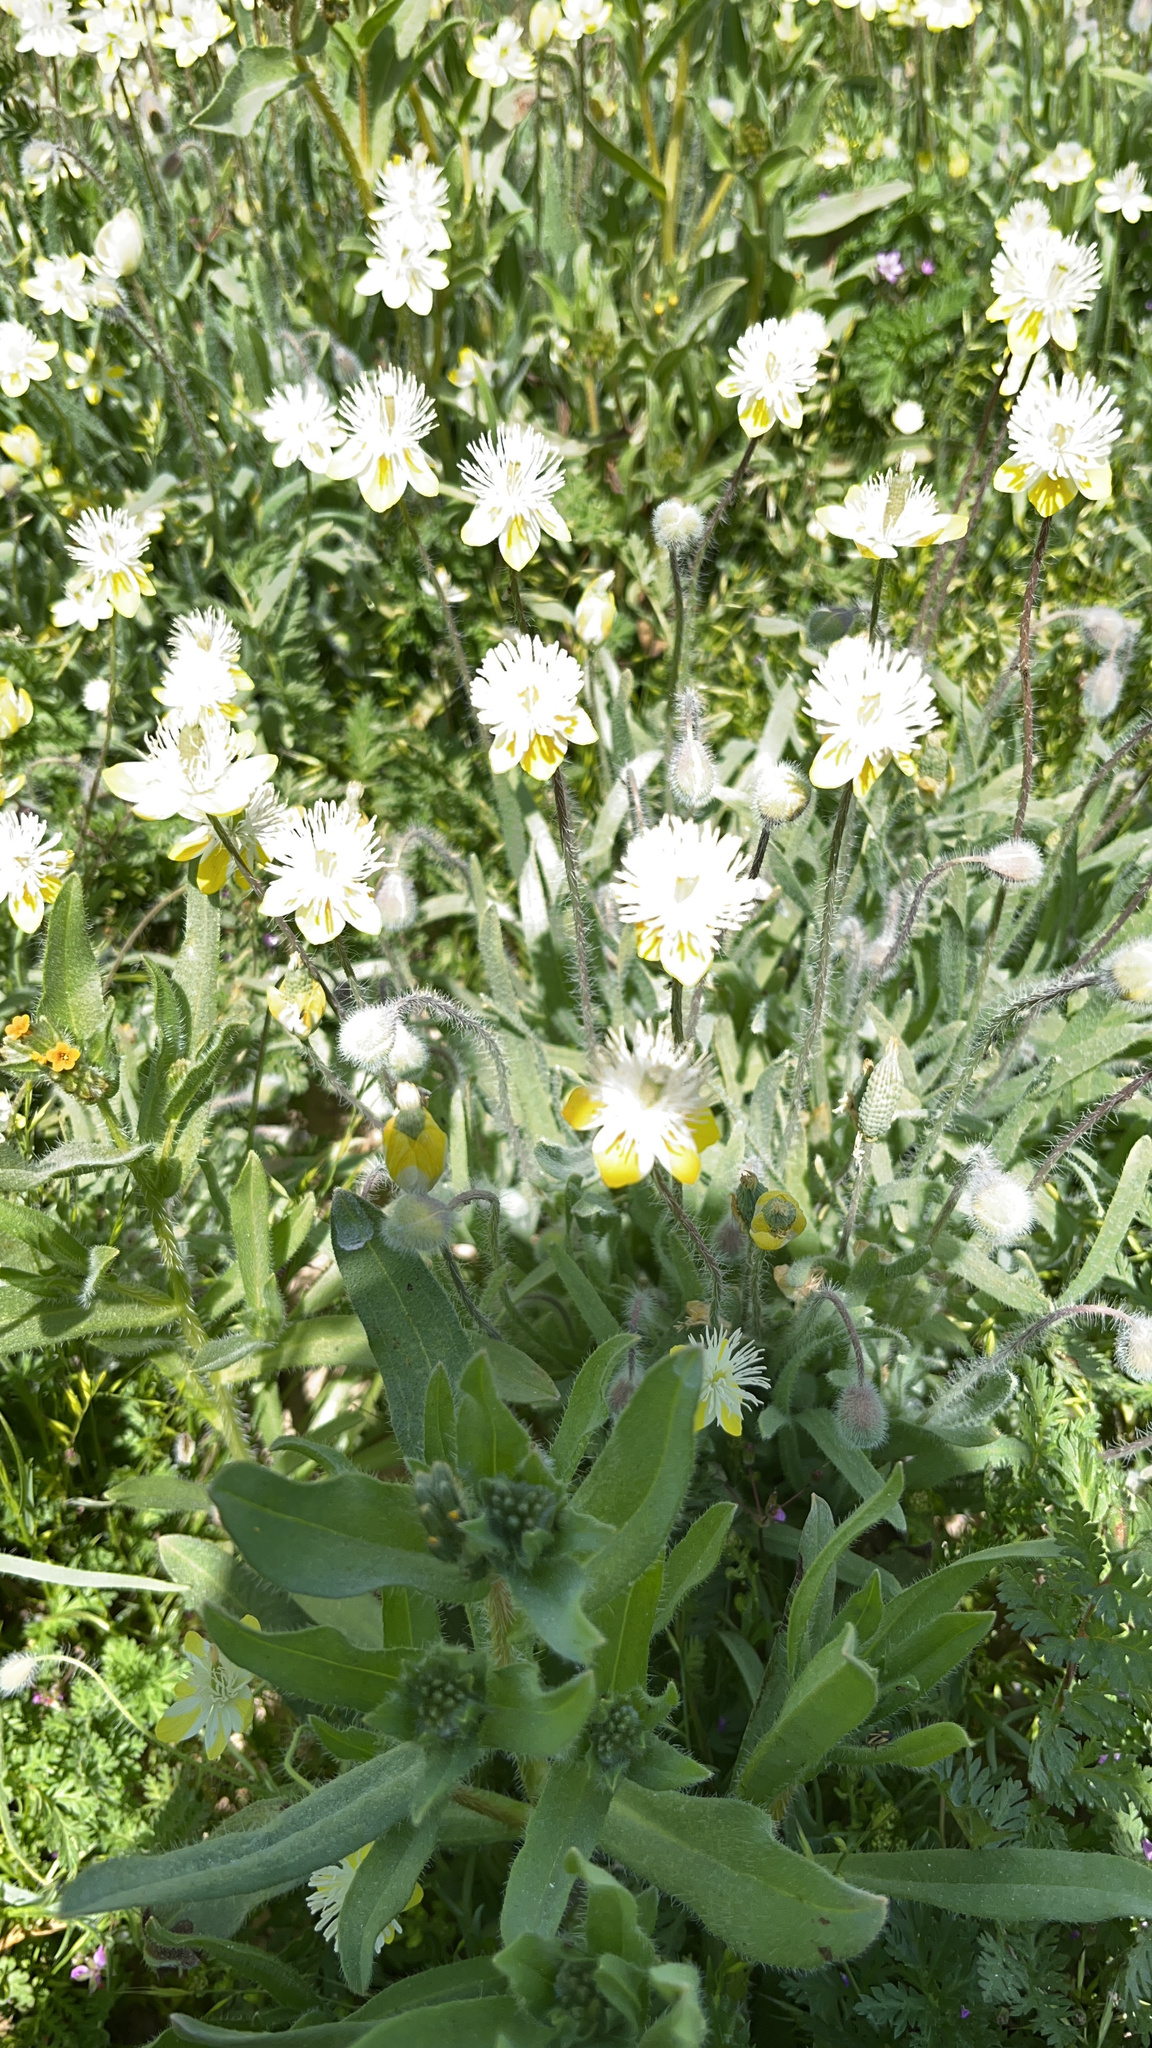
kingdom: Plantae
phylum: Tracheophyta
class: Magnoliopsida
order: Ranunculales
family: Papaveraceae
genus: Platystemon
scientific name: Platystemon californicus
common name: Cream-cups
